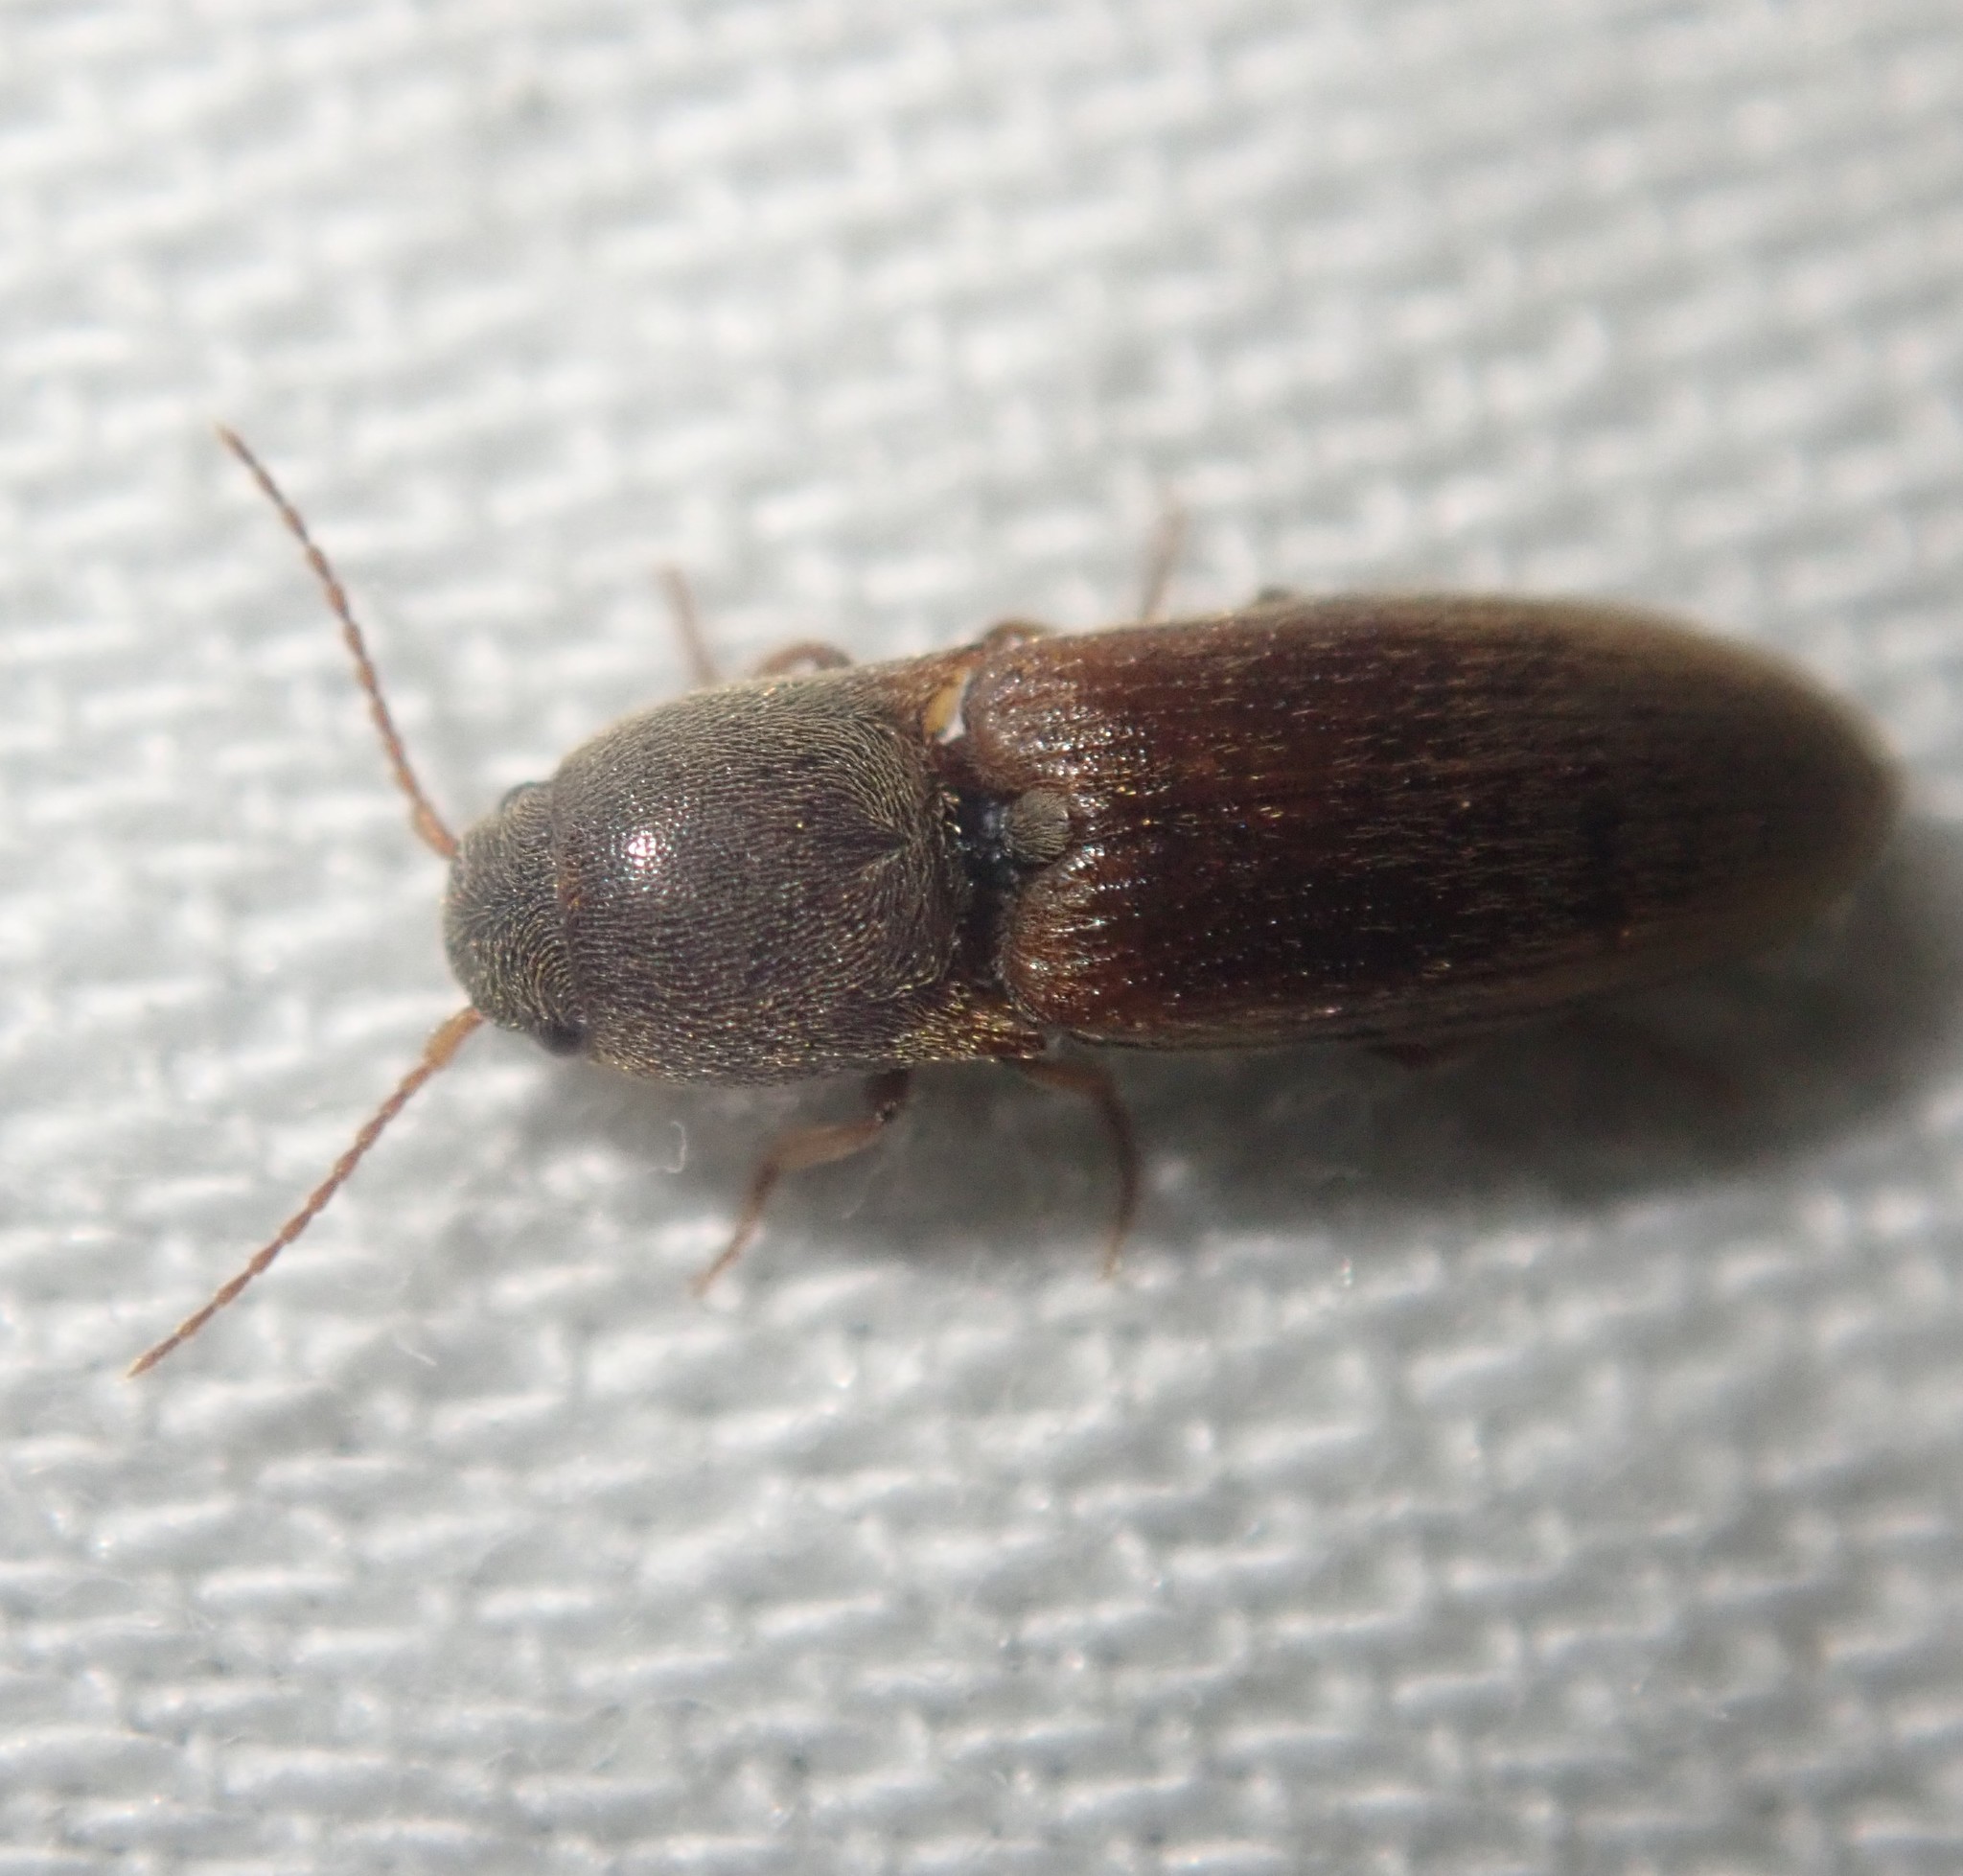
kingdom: Animalia
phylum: Arthropoda
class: Insecta
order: Coleoptera
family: Elateridae
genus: Agriotes
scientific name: Agriotes sputator
